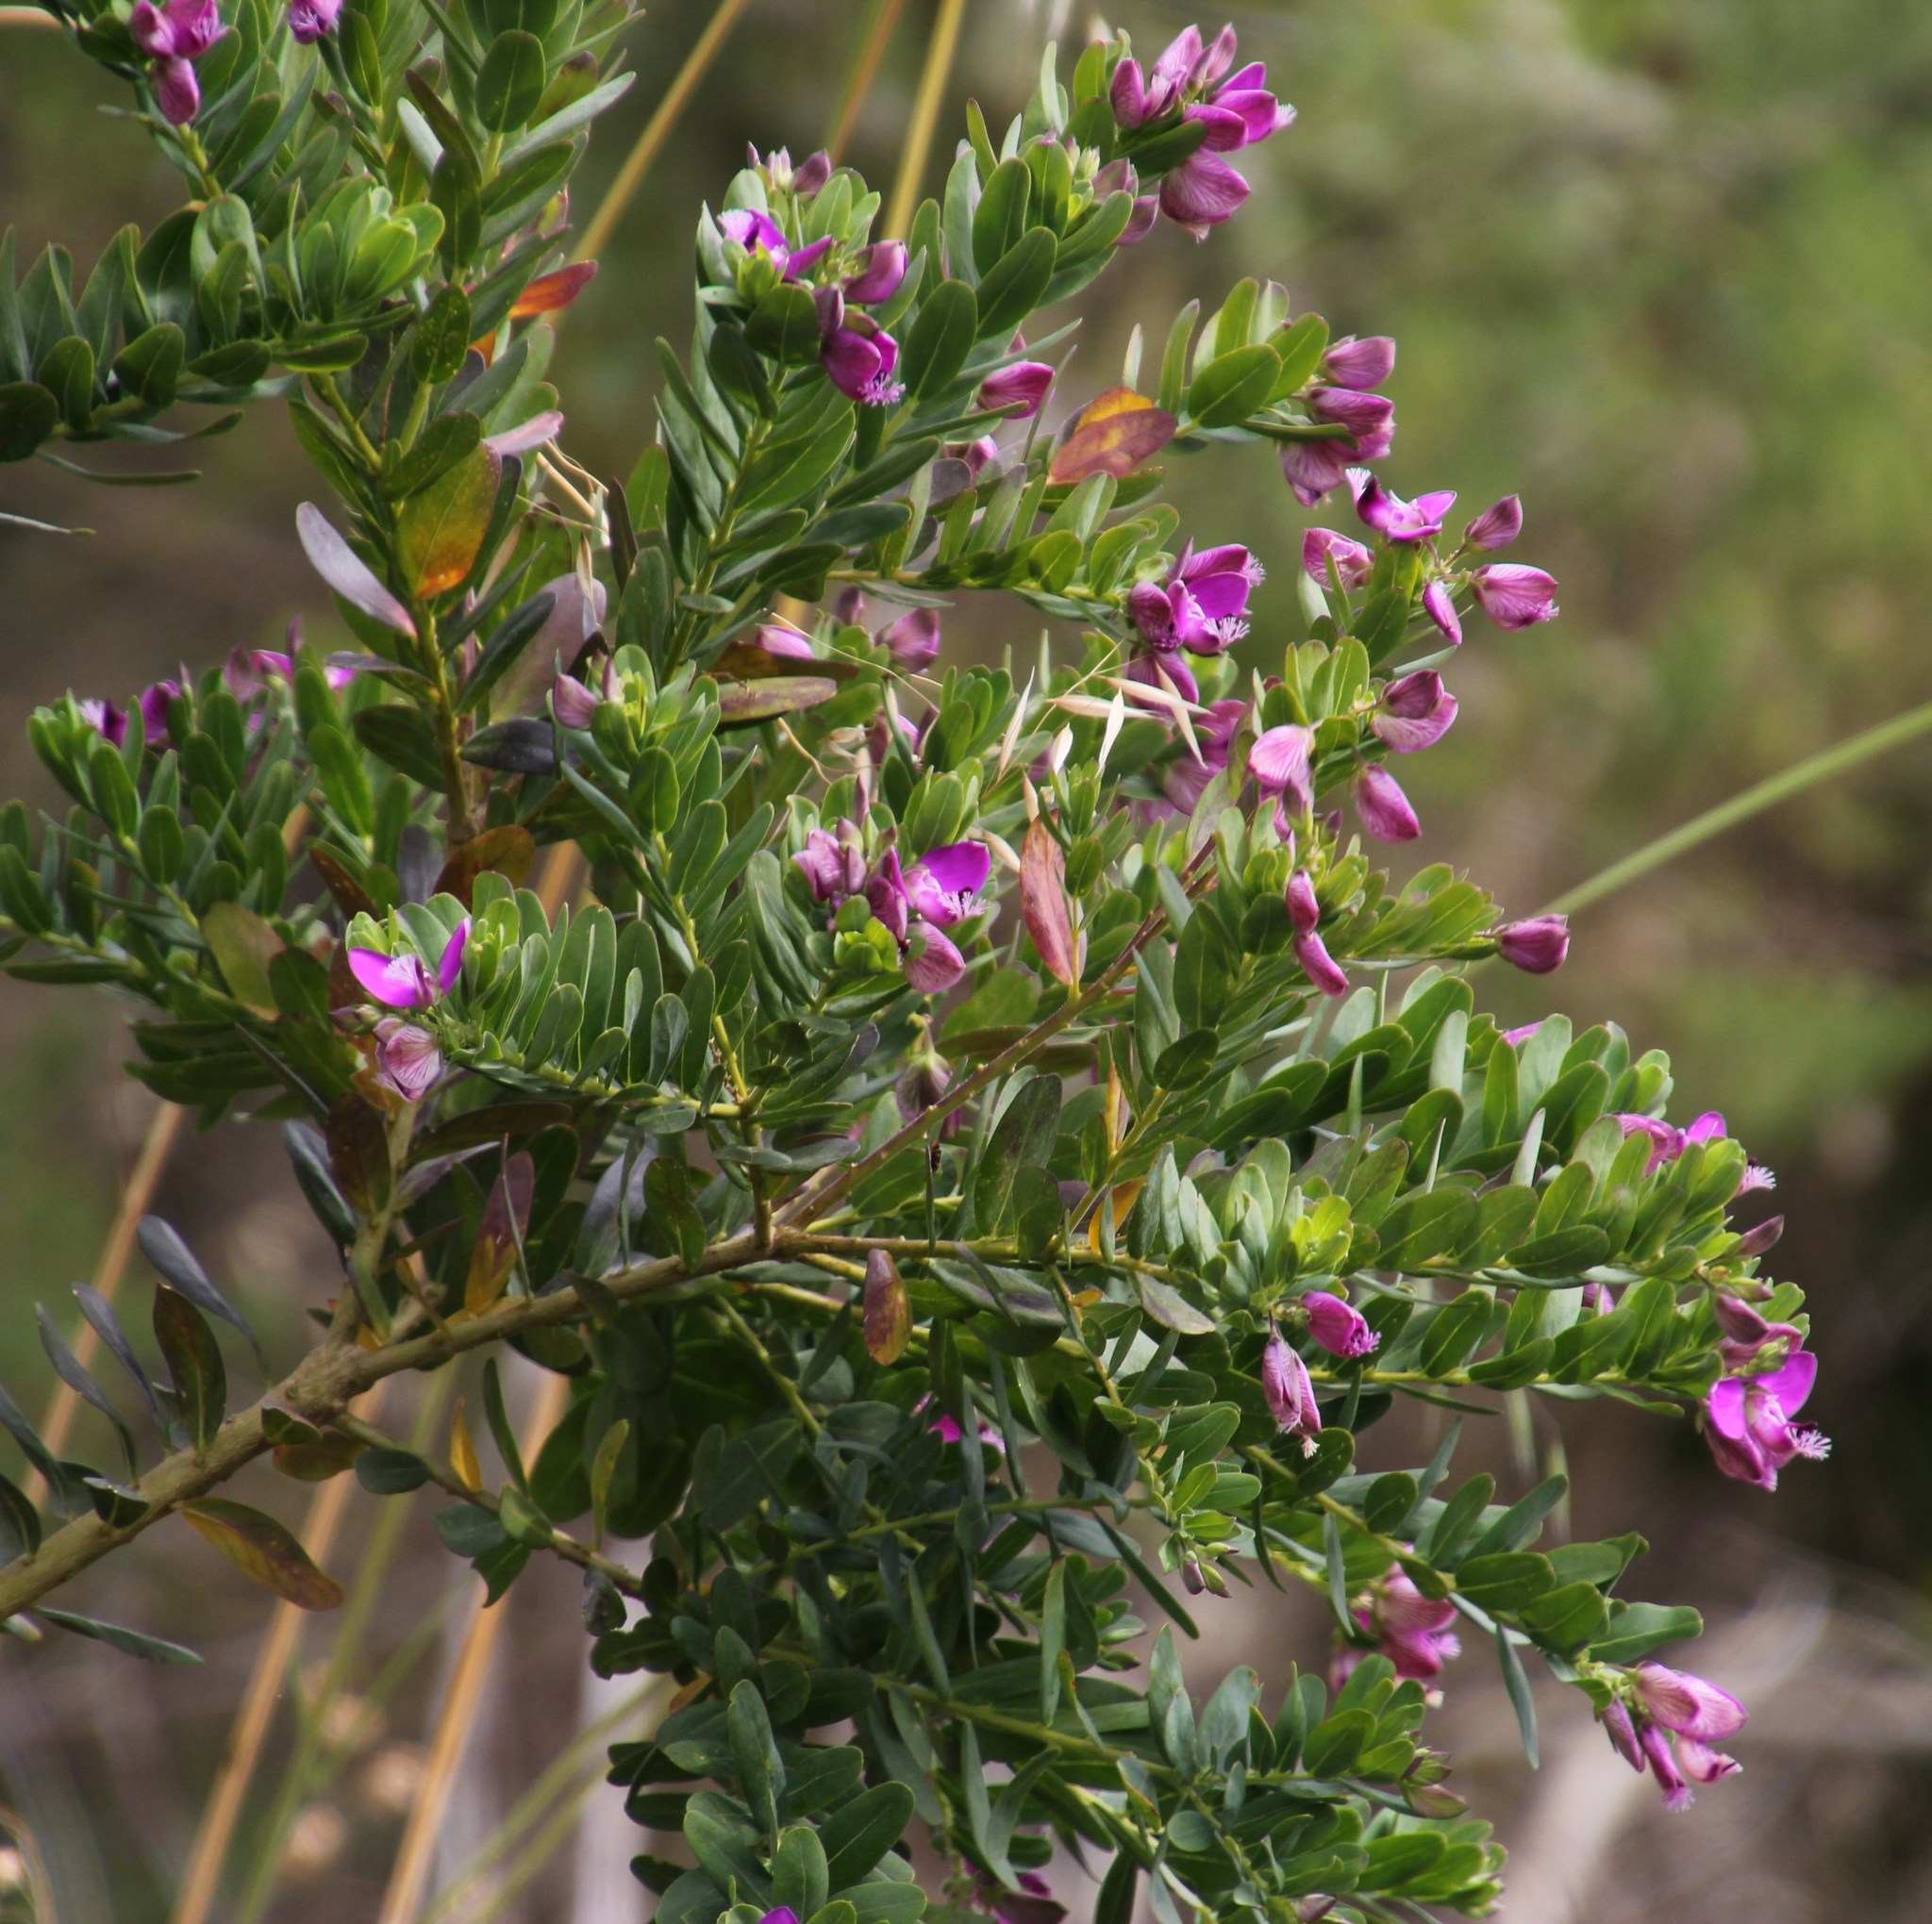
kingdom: Plantae
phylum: Tracheophyta
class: Magnoliopsida
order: Fabales
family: Polygalaceae
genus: Polygala
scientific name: Polygala myrtifolia
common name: Myrtle-leaf milkwort
